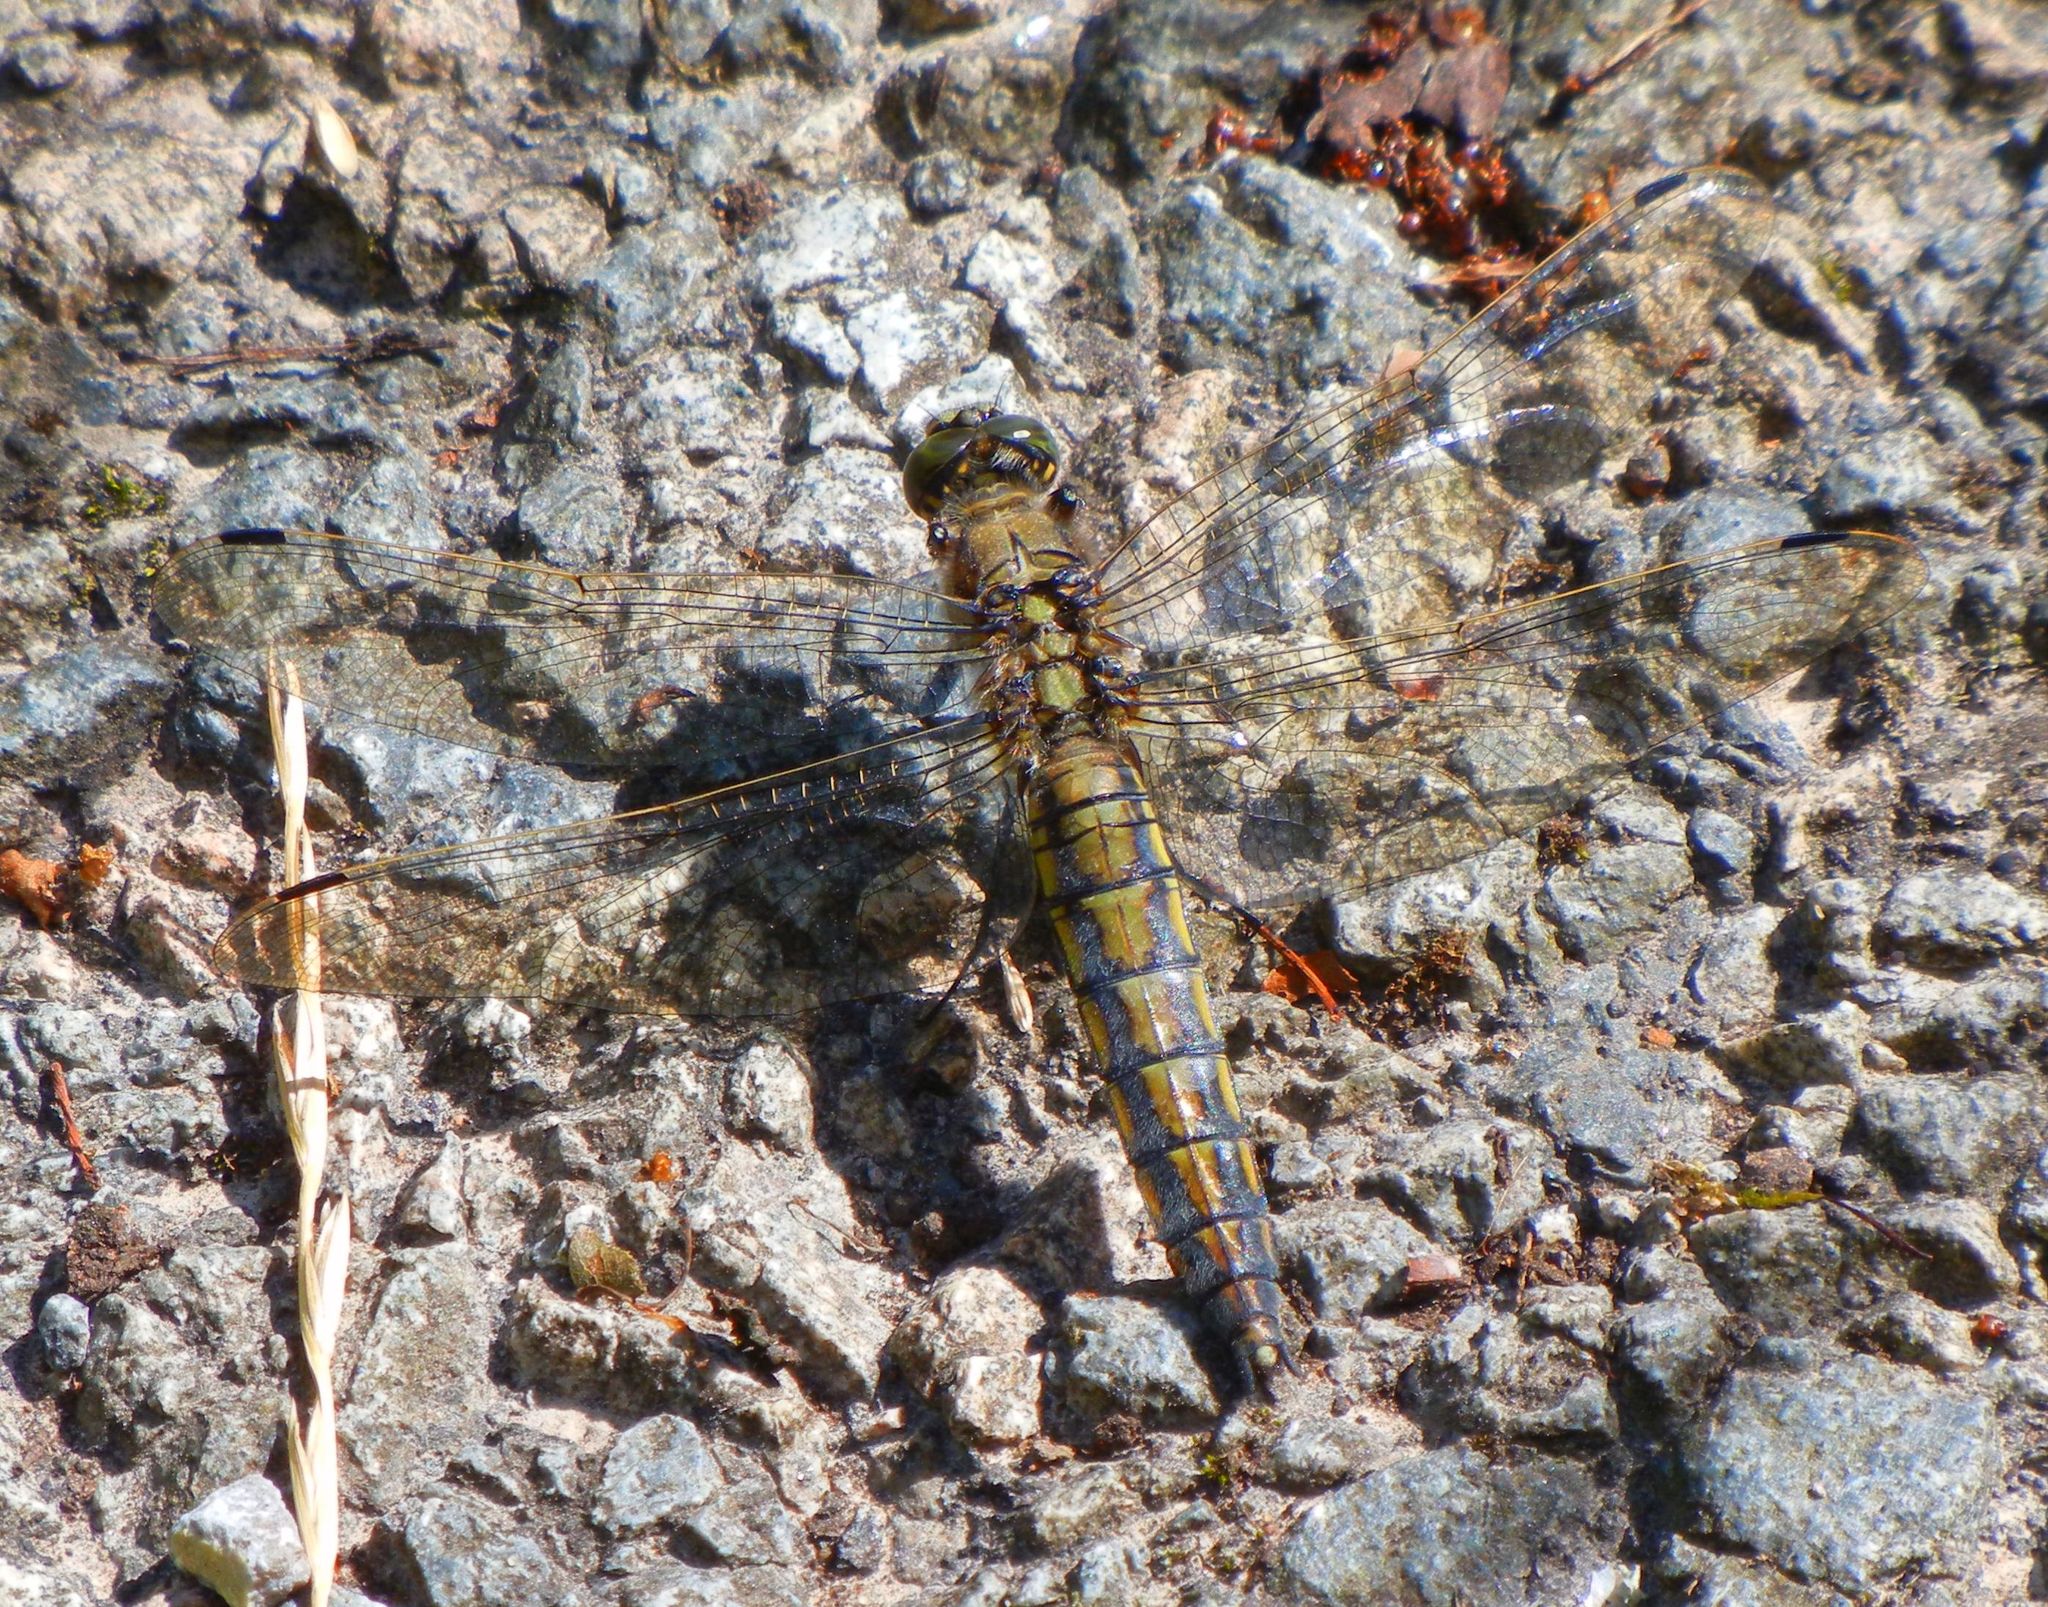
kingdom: Animalia
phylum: Arthropoda
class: Insecta
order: Odonata
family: Libellulidae
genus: Orthetrum
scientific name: Orthetrum cancellatum
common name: Black-tailed skimmer
